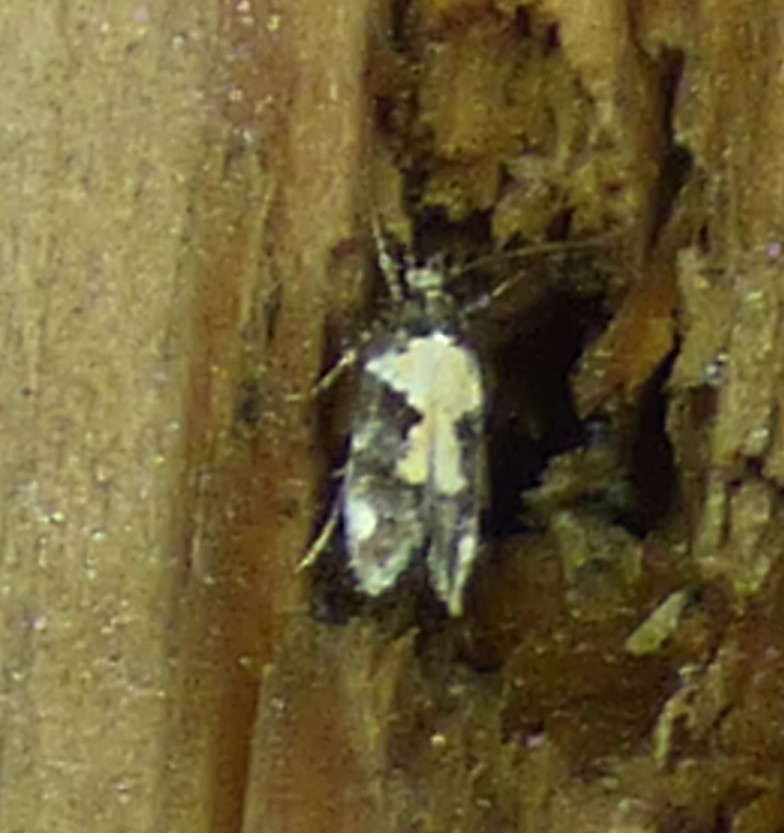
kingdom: Animalia
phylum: Arthropoda
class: Insecta
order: Lepidoptera
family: Gelechiidae
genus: Stegasta
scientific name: Stegasta bosqueella
